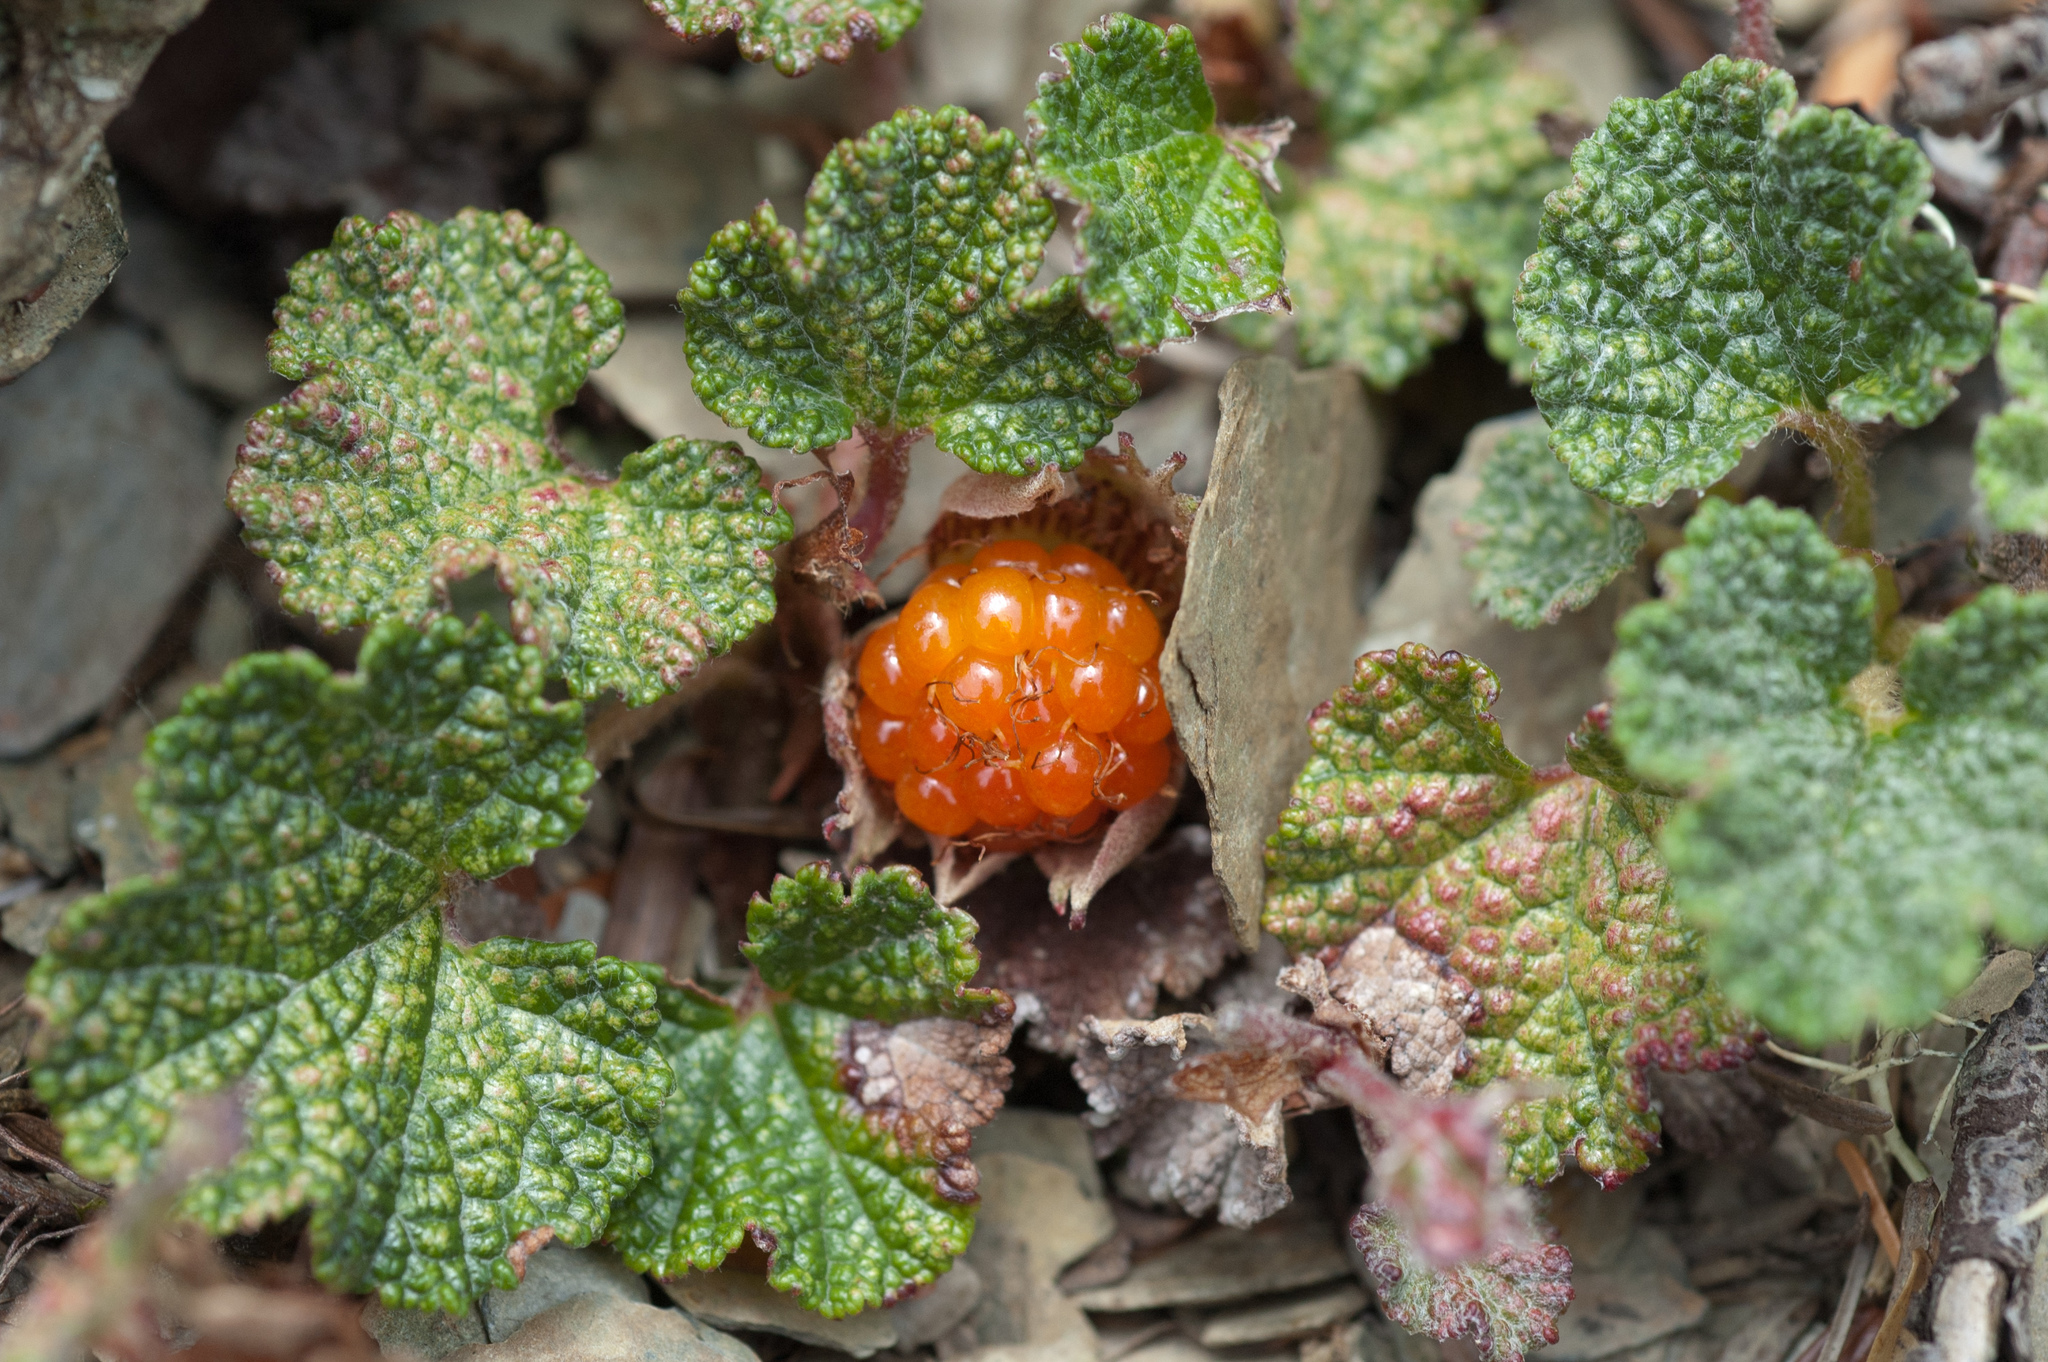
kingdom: Plantae
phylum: Tracheophyta
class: Magnoliopsida
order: Rosales
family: Rosaceae
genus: Rubus
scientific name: Rubus rolfei
